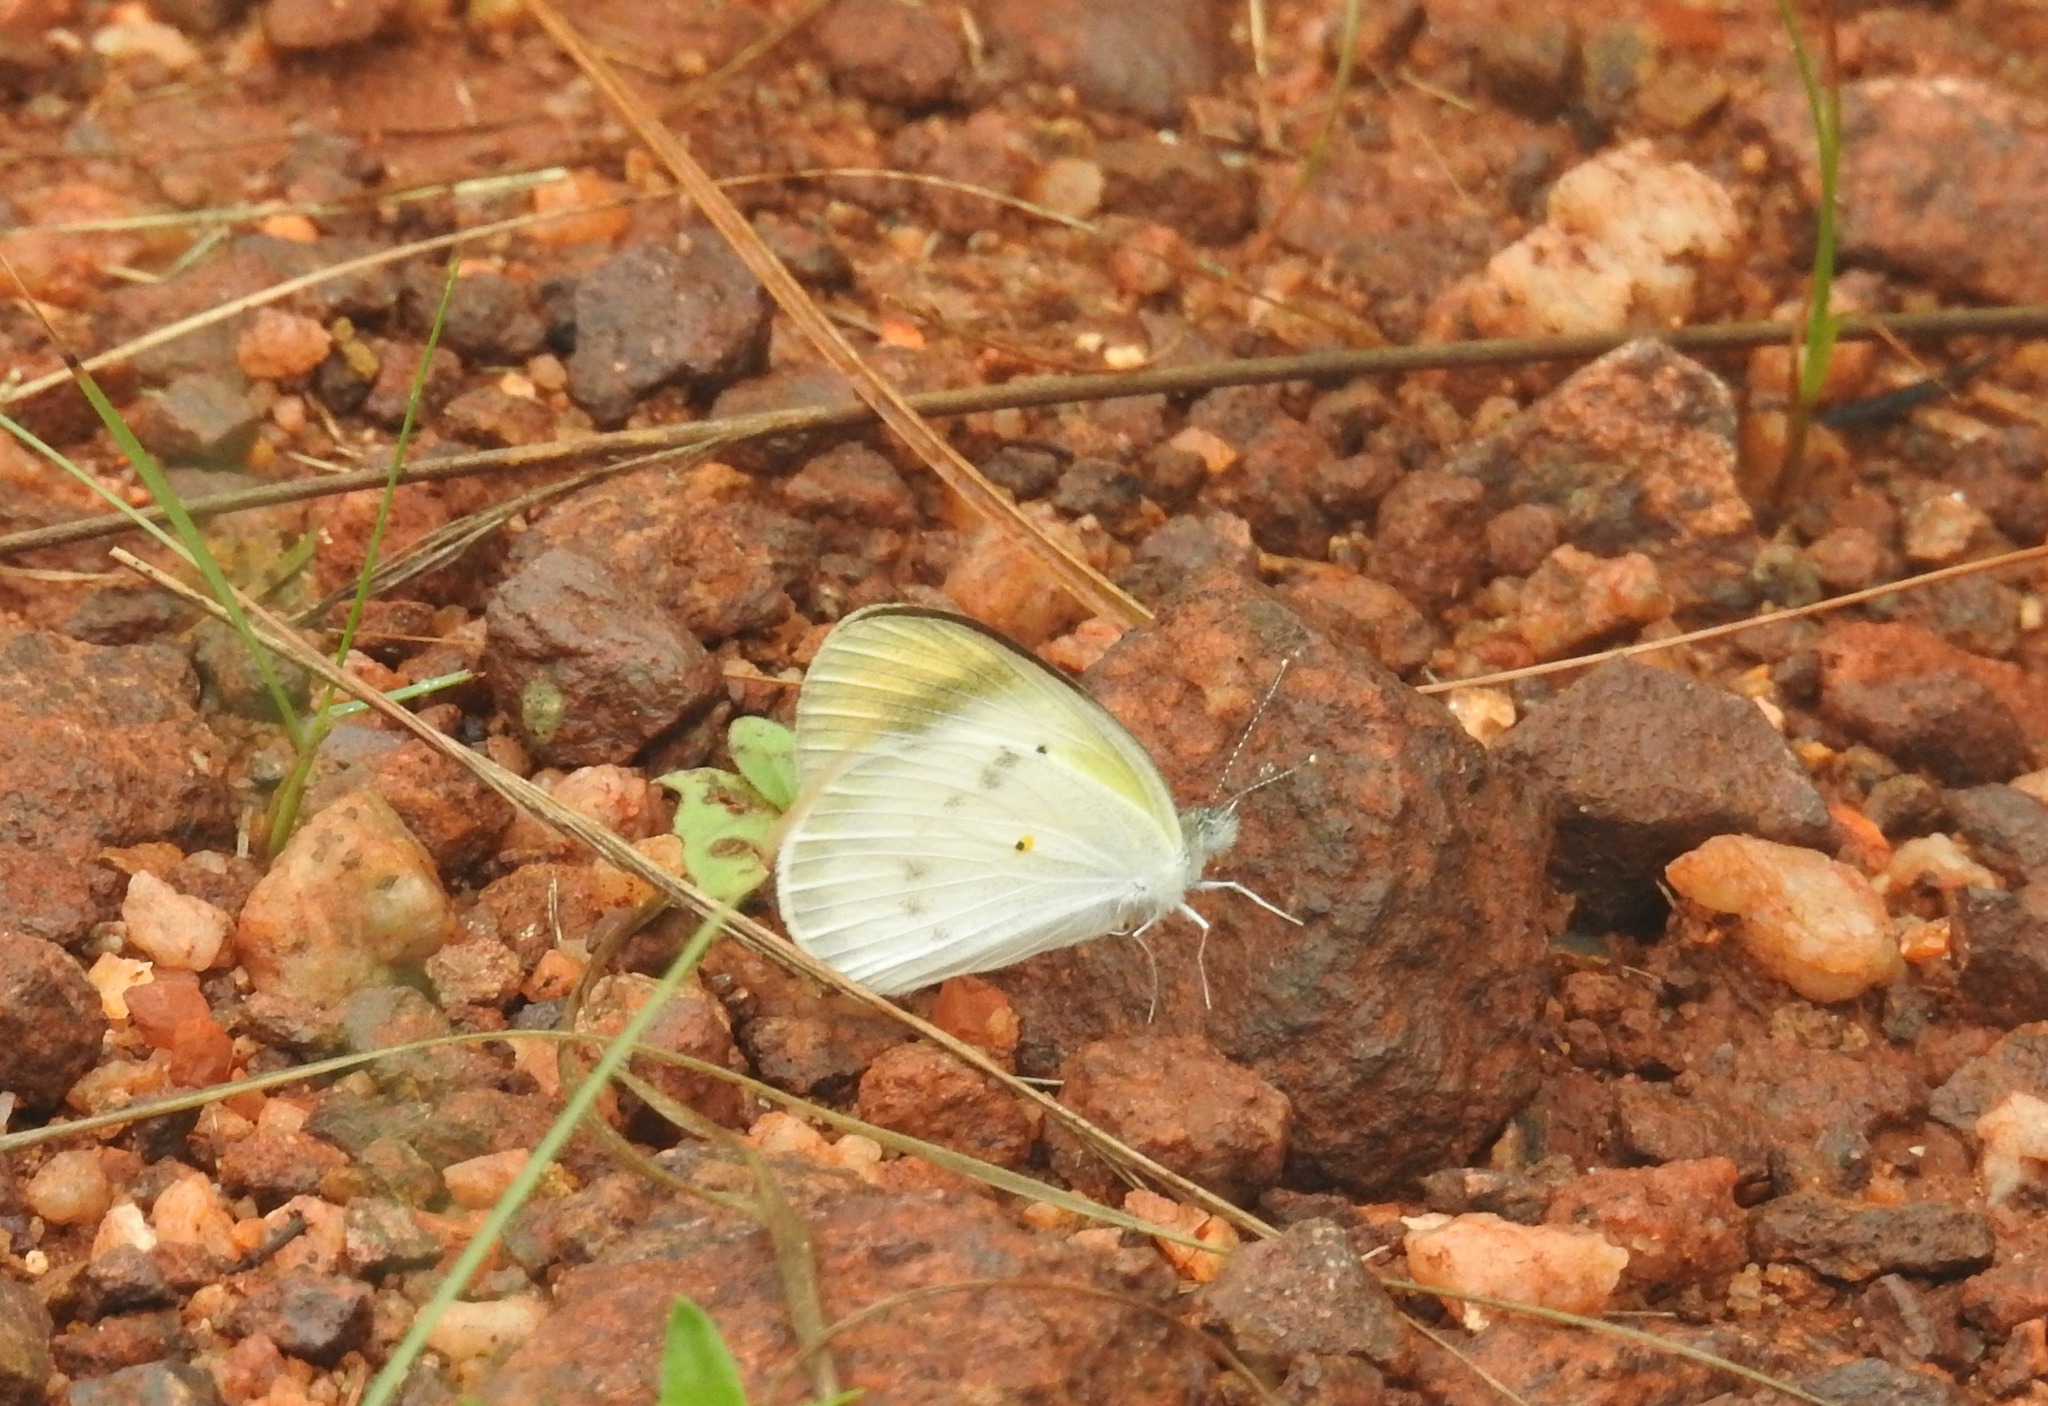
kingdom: Animalia
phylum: Arthropoda
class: Insecta
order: Lepidoptera
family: Pieridae
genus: Colotis
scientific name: Colotis etrida
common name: Little orange tip
